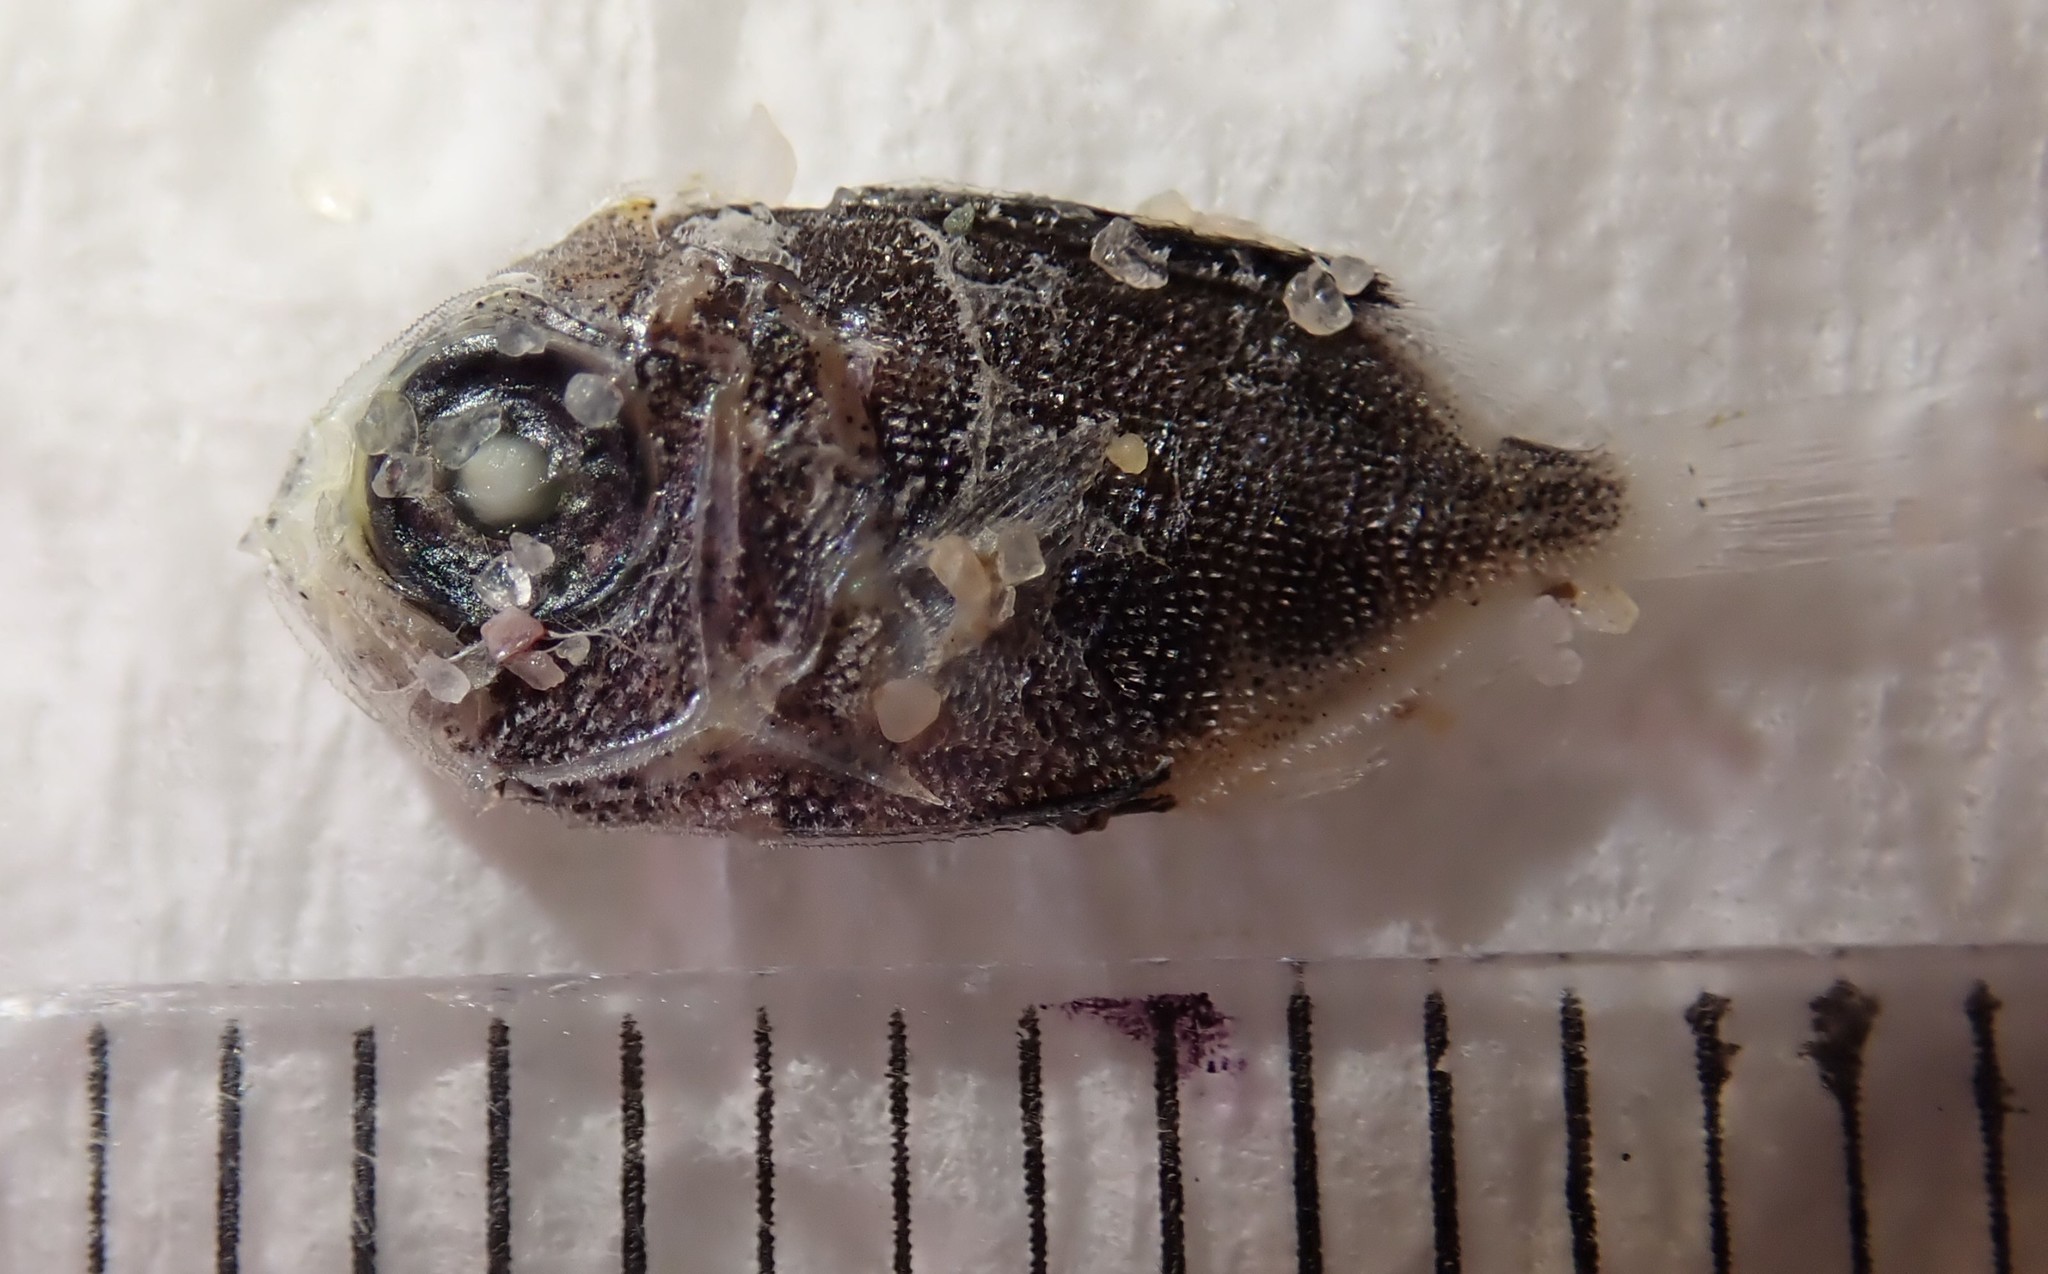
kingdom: Animalia
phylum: Chordata
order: Perciformes
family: Priacanthidae
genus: Heteropriacanthus
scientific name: Heteropriacanthus cruentatus
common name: Glasseye
